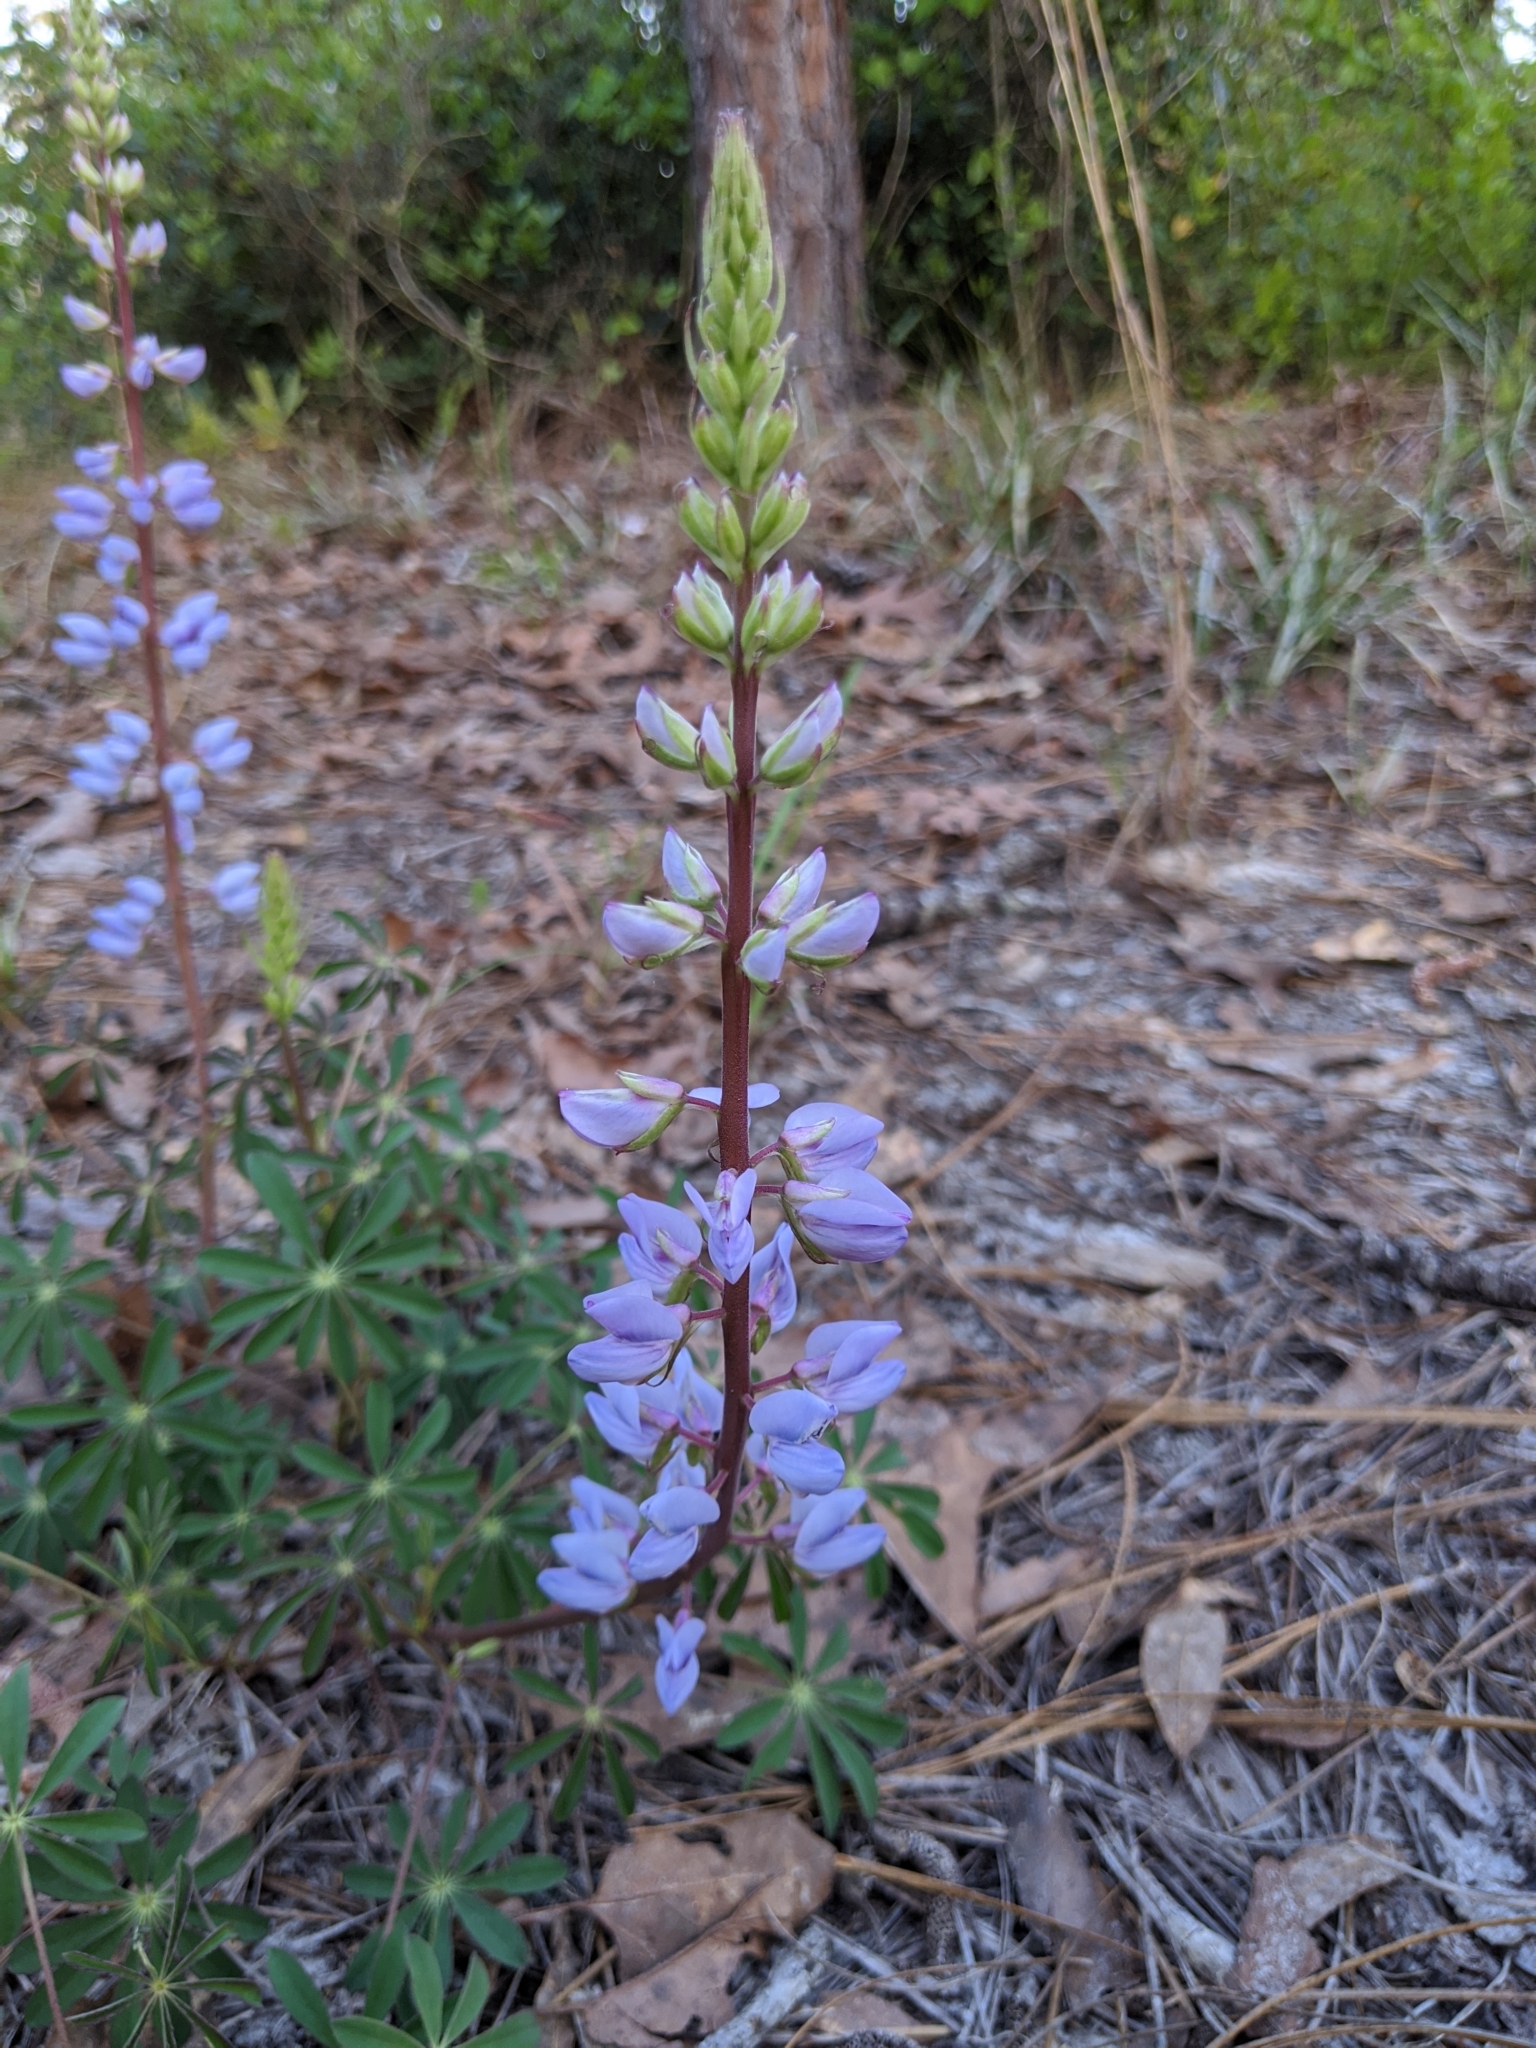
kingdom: Plantae
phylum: Tracheophyta
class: Magnoliopsida
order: Fabales
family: Fabaceae
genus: Lupinus
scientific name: Lupinus perennis
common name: Sundial lupine
